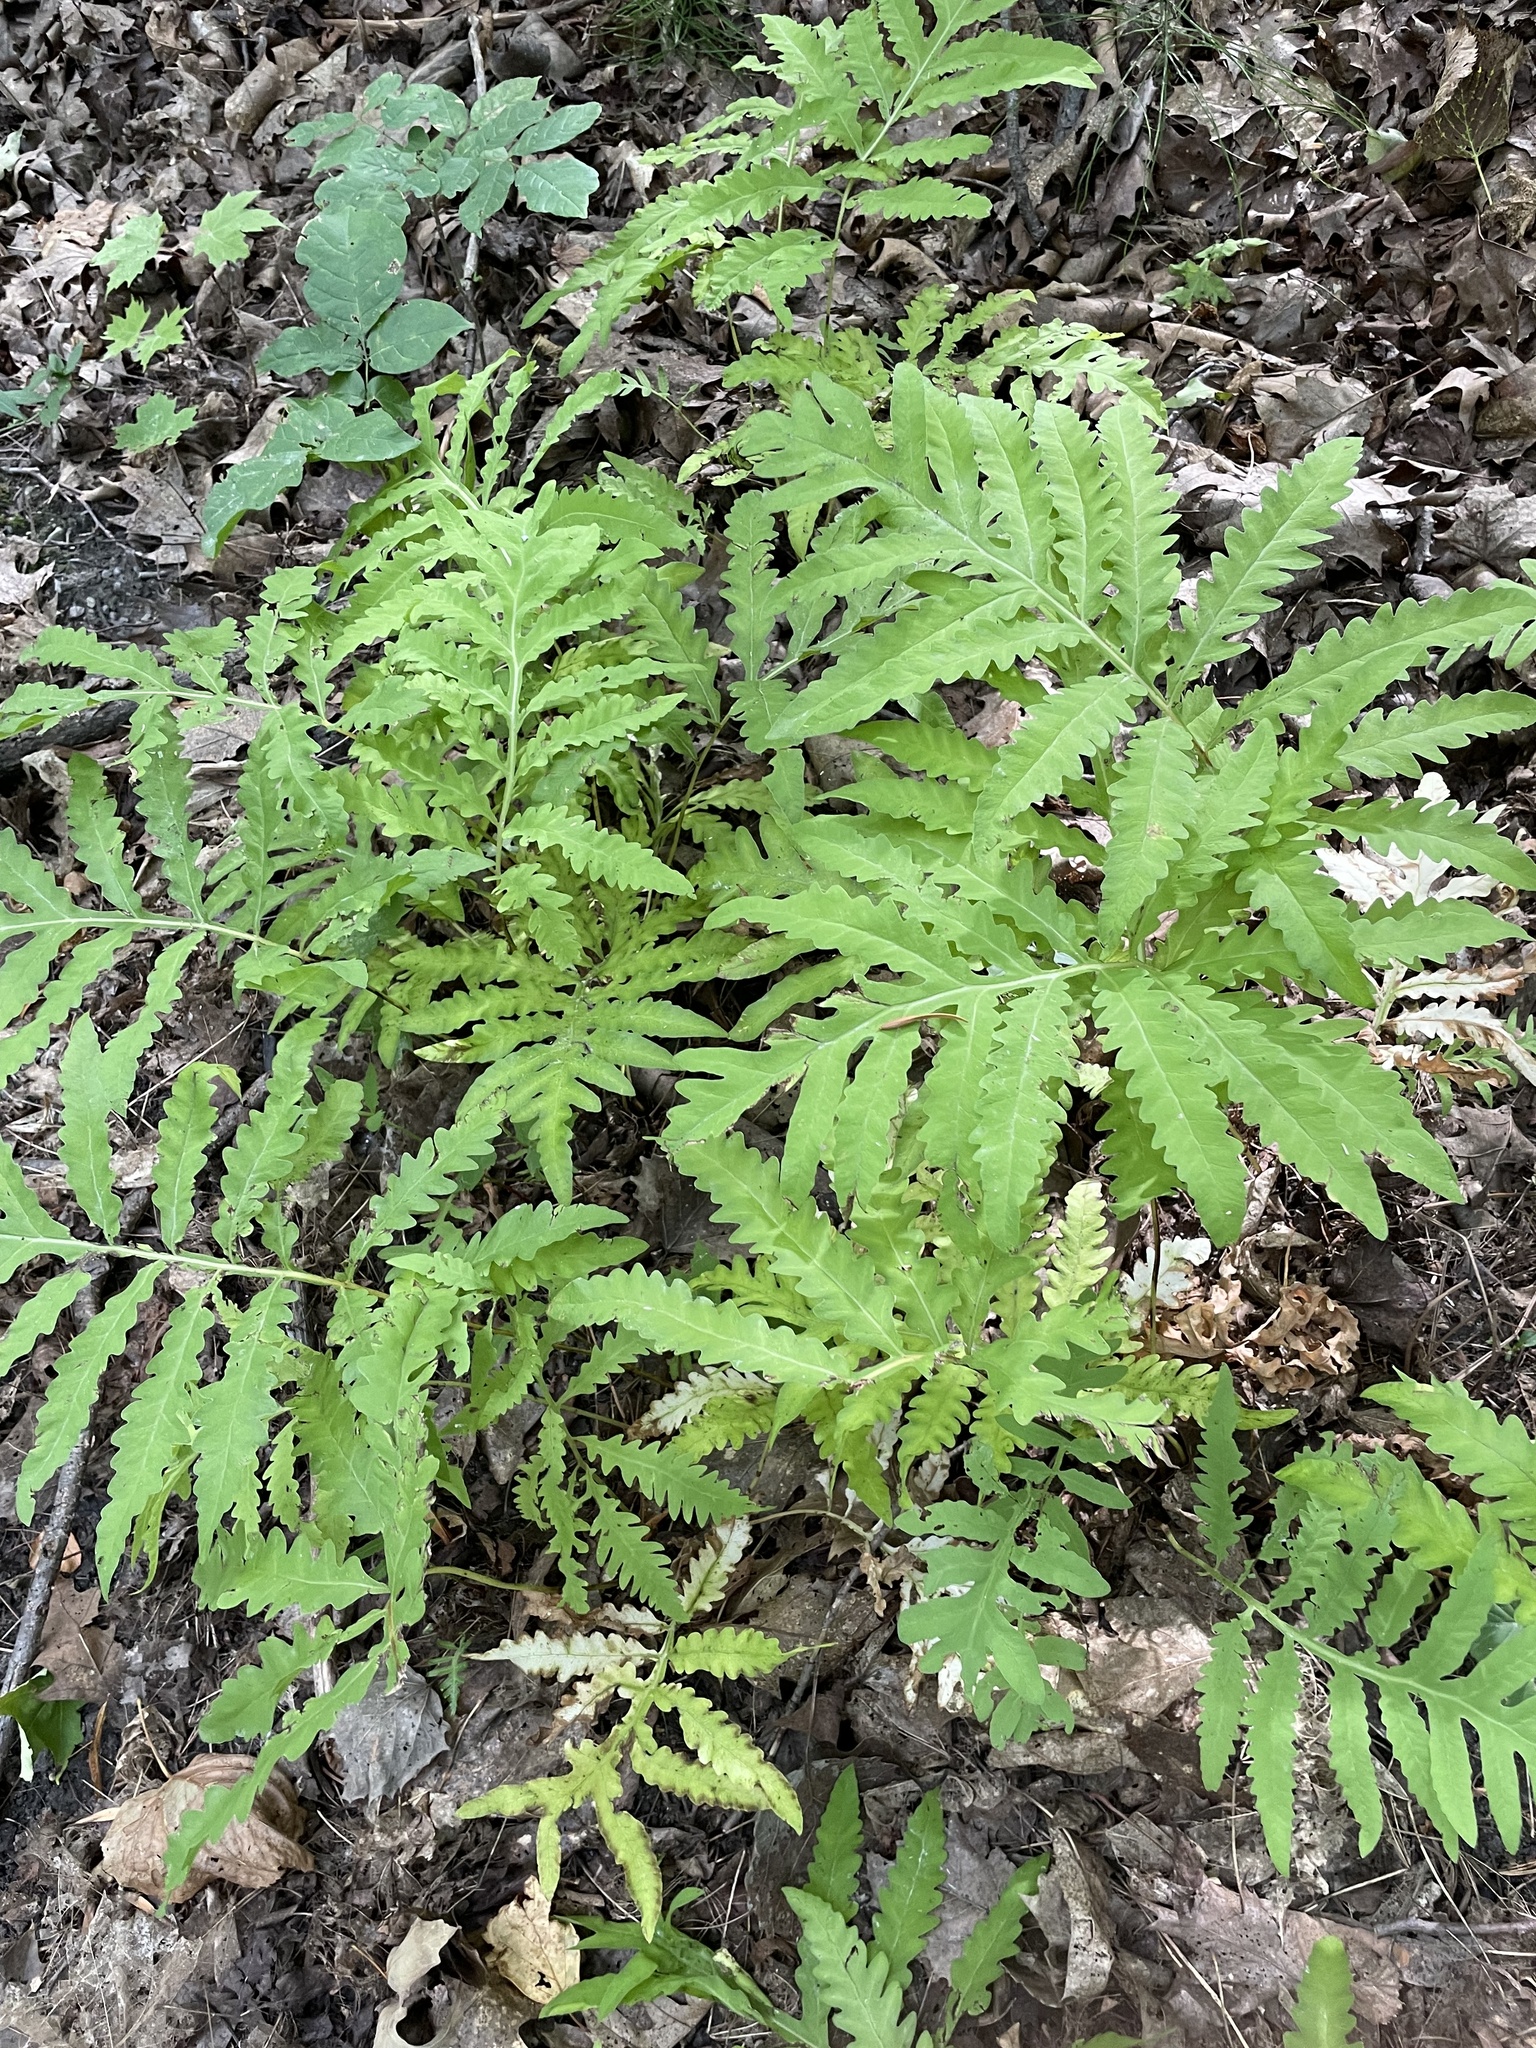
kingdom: Plantae
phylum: Tracheophyta
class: Polypodiopsida
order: Polypodiales
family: Onocleaceae
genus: Onoclea
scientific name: Onoclea sensibilis
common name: Sensitive fern
